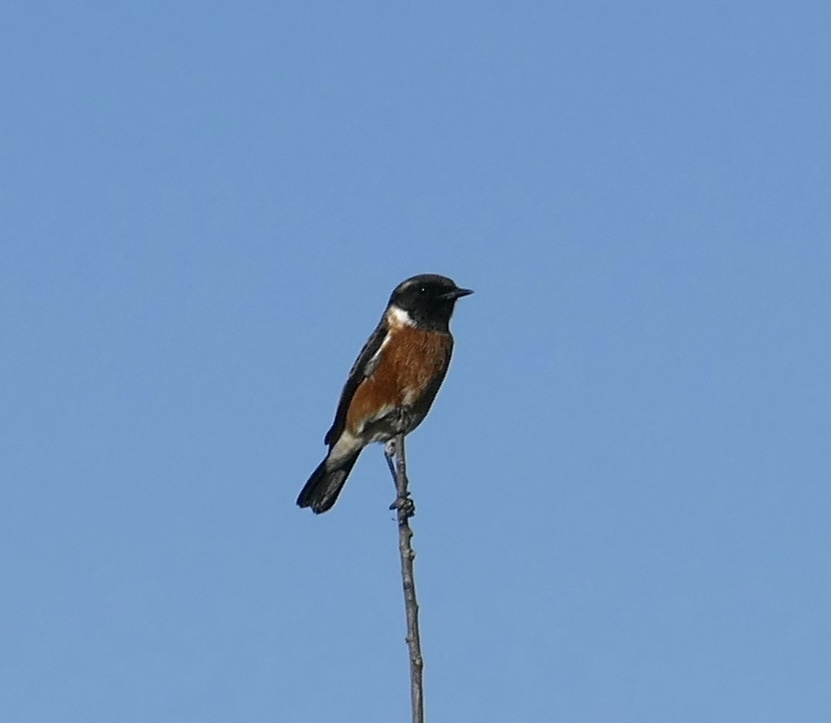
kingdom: Animalia
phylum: Chordata
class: Aves
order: Passeriformes
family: Muscicapidae
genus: Saxicola
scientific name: Saxicola torquatus
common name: African stonechat
